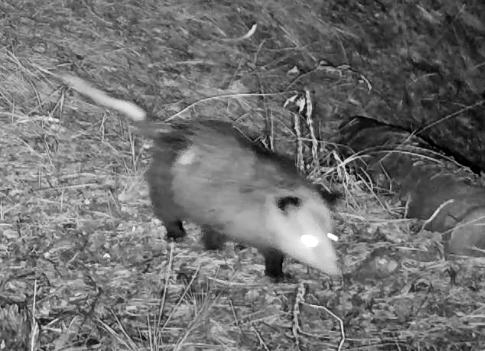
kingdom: Animalia
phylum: Chordata
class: Mammalia
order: Didelphimorphia
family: Didelphidae
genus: Didelphis
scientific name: Didelphis virginiana
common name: Virginia opossum
